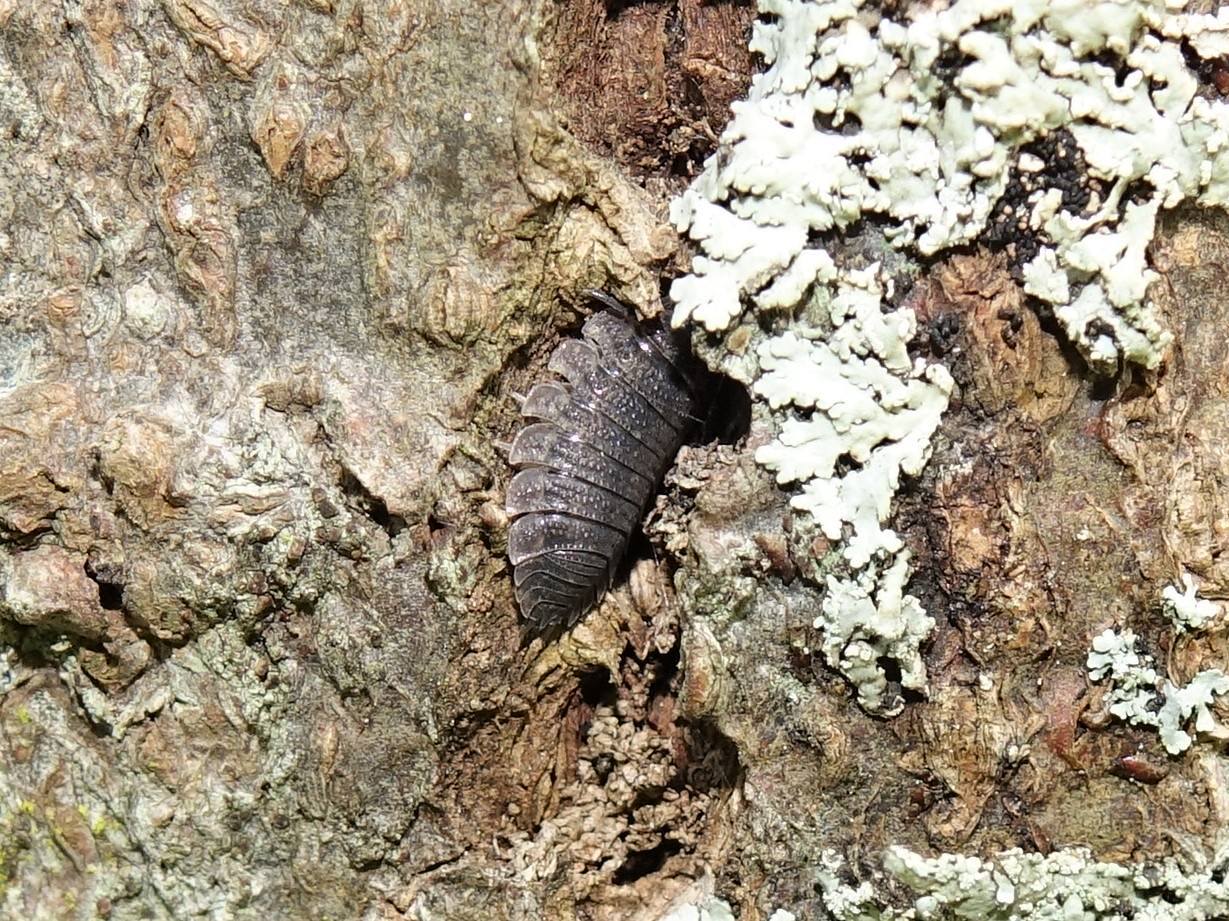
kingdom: Animalia
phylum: Arthropoda
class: Malacostraca
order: Isopoda
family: Porcellionidae
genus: Porcellio
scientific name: Porcellio scaber
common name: Common rough woodlouse
